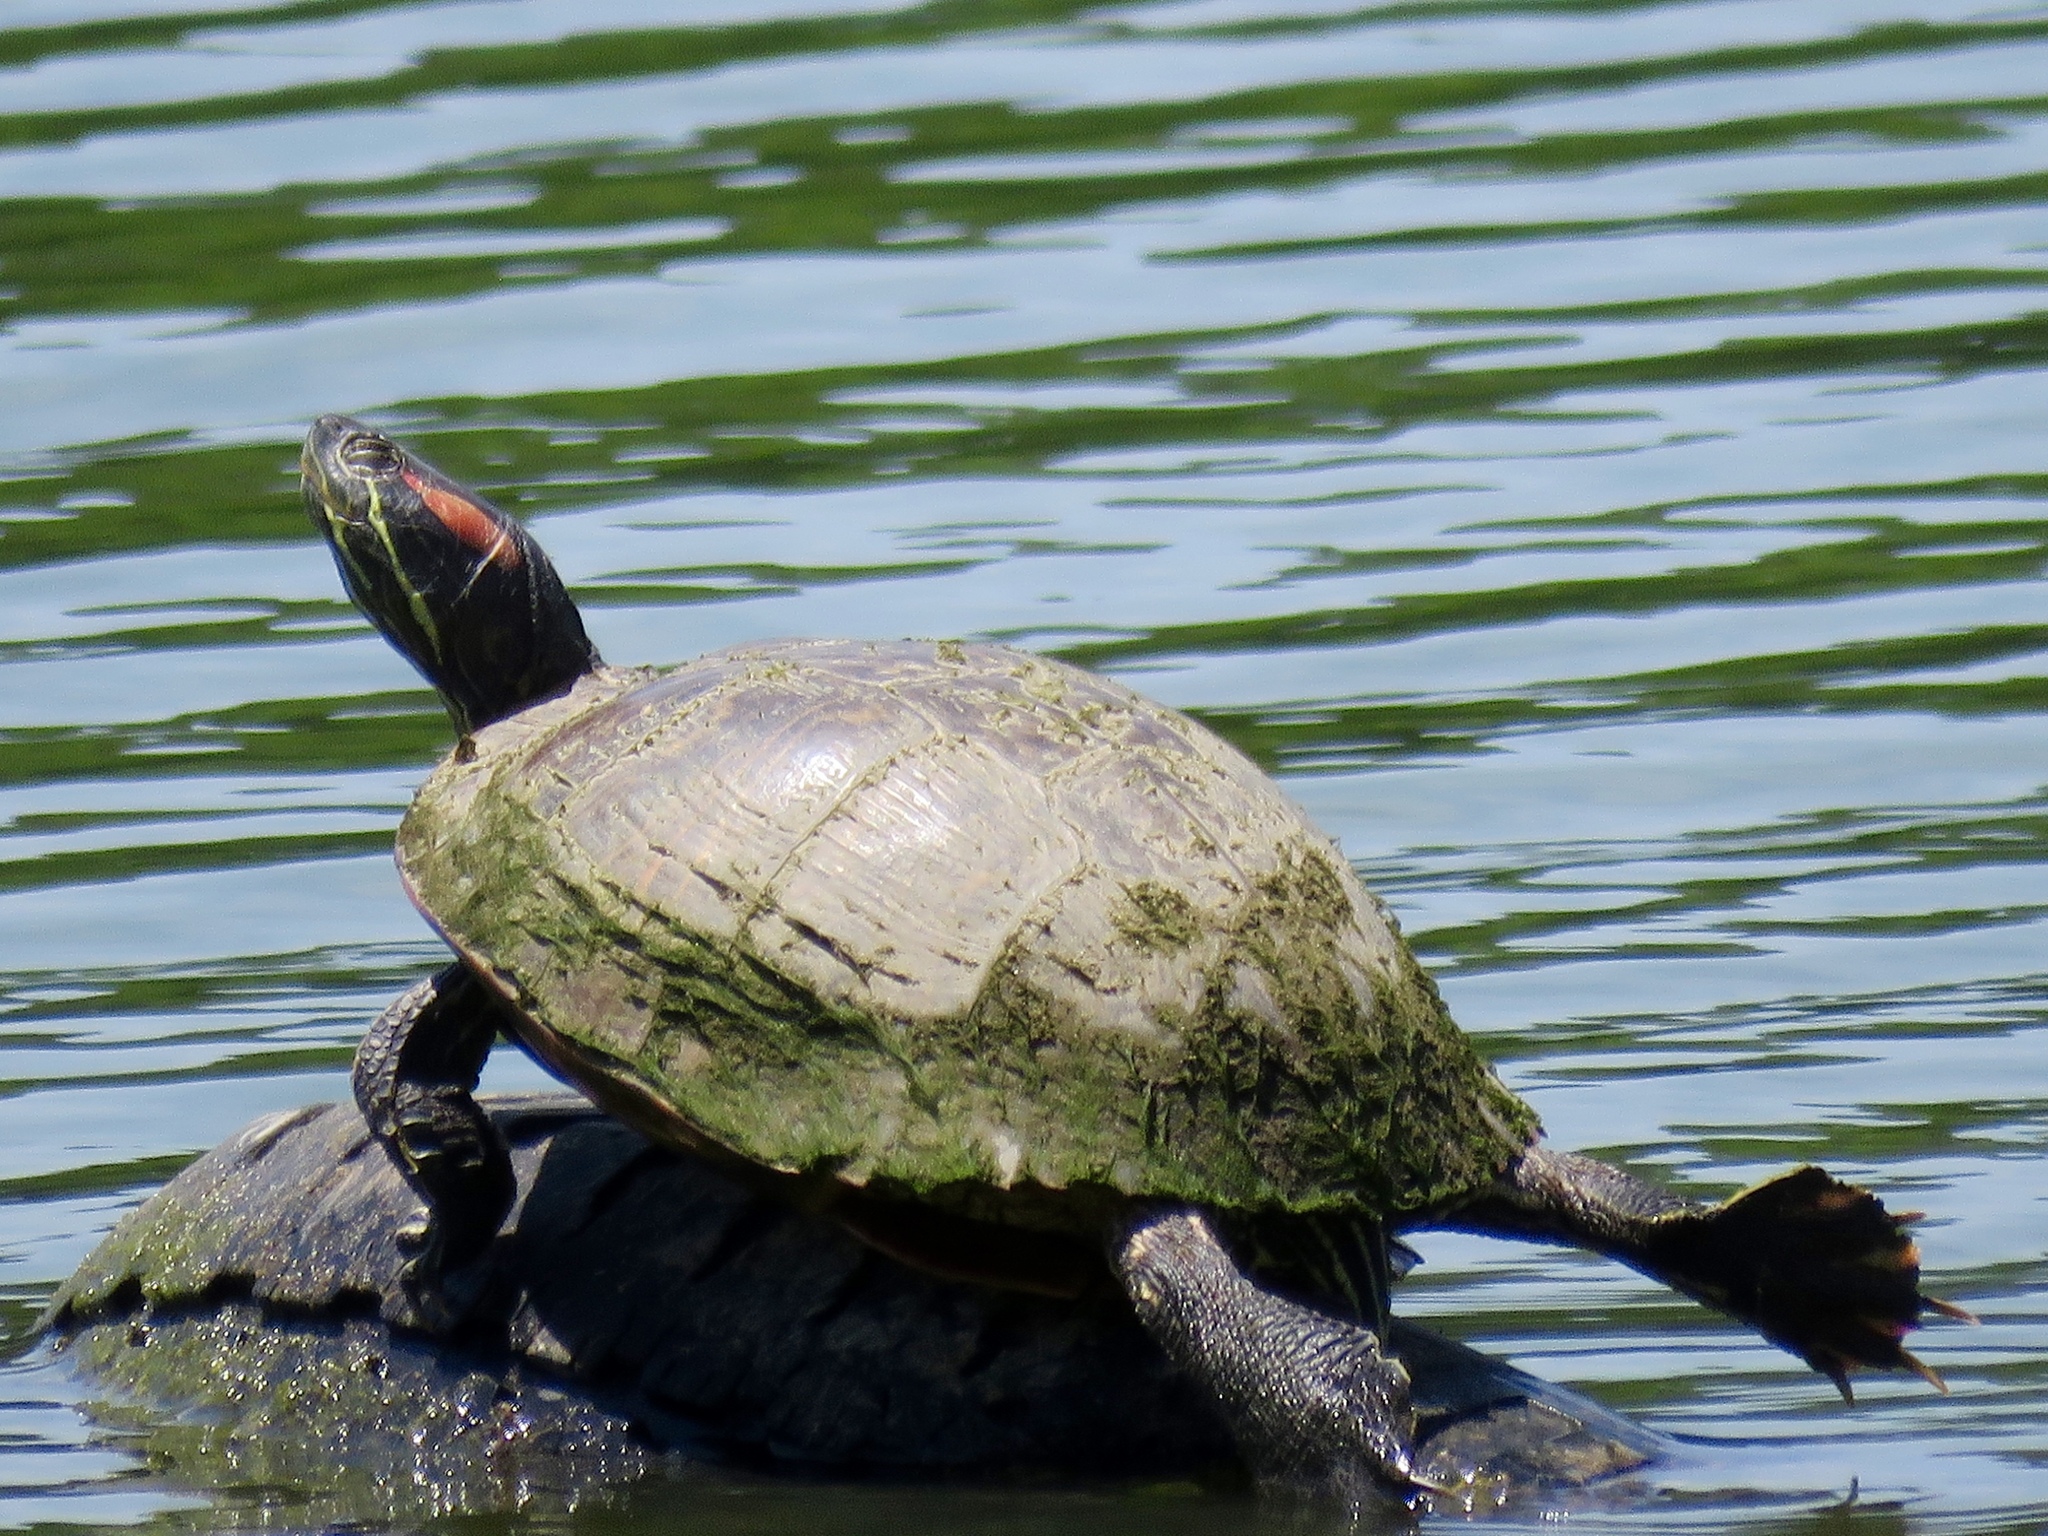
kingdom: Animalia
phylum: Chordata
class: Testudines
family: Emydidae
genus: Trachemys
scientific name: Trachemys scripta
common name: Slider
